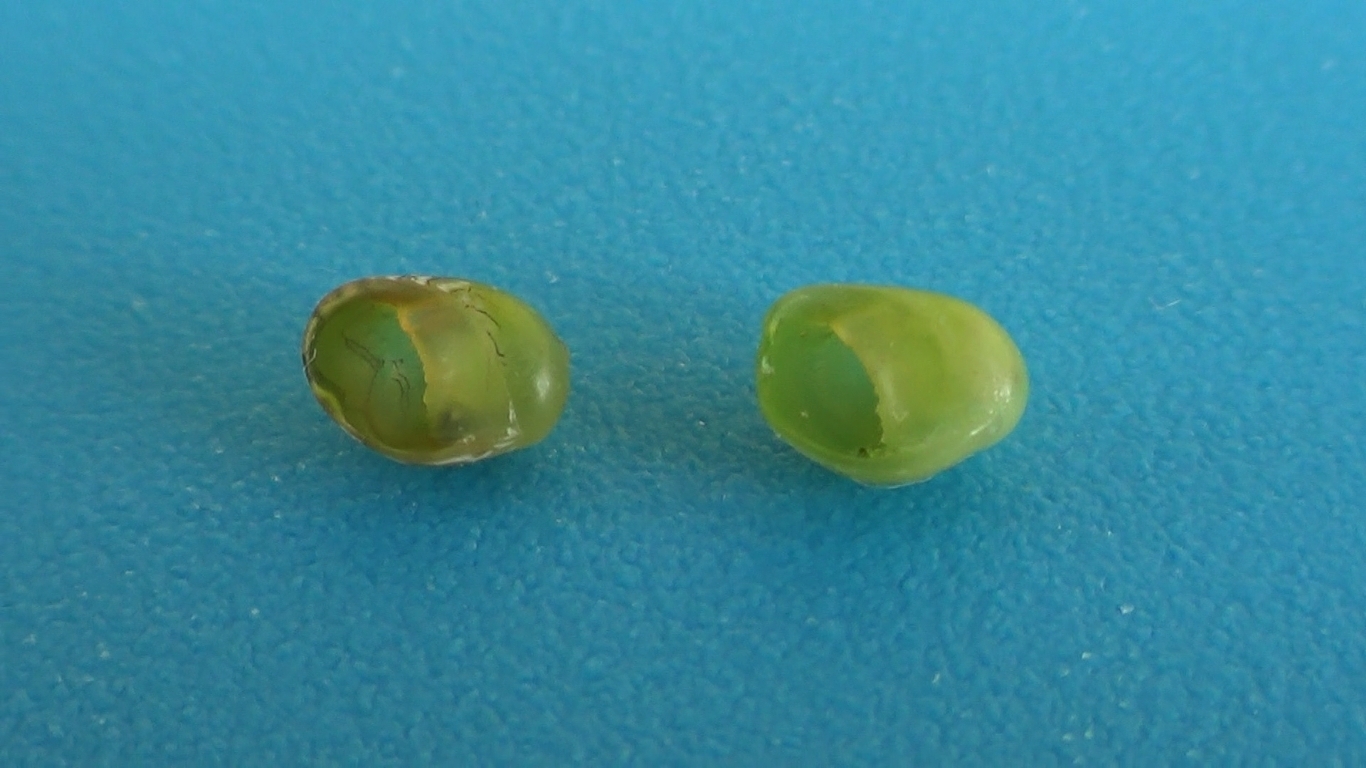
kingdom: Animalia
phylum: Mollusca
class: Gastropoda
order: Cycloneritida
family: Neritidae
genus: Smaragdia
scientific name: Smaragdia viridis
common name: Emerald nerite
